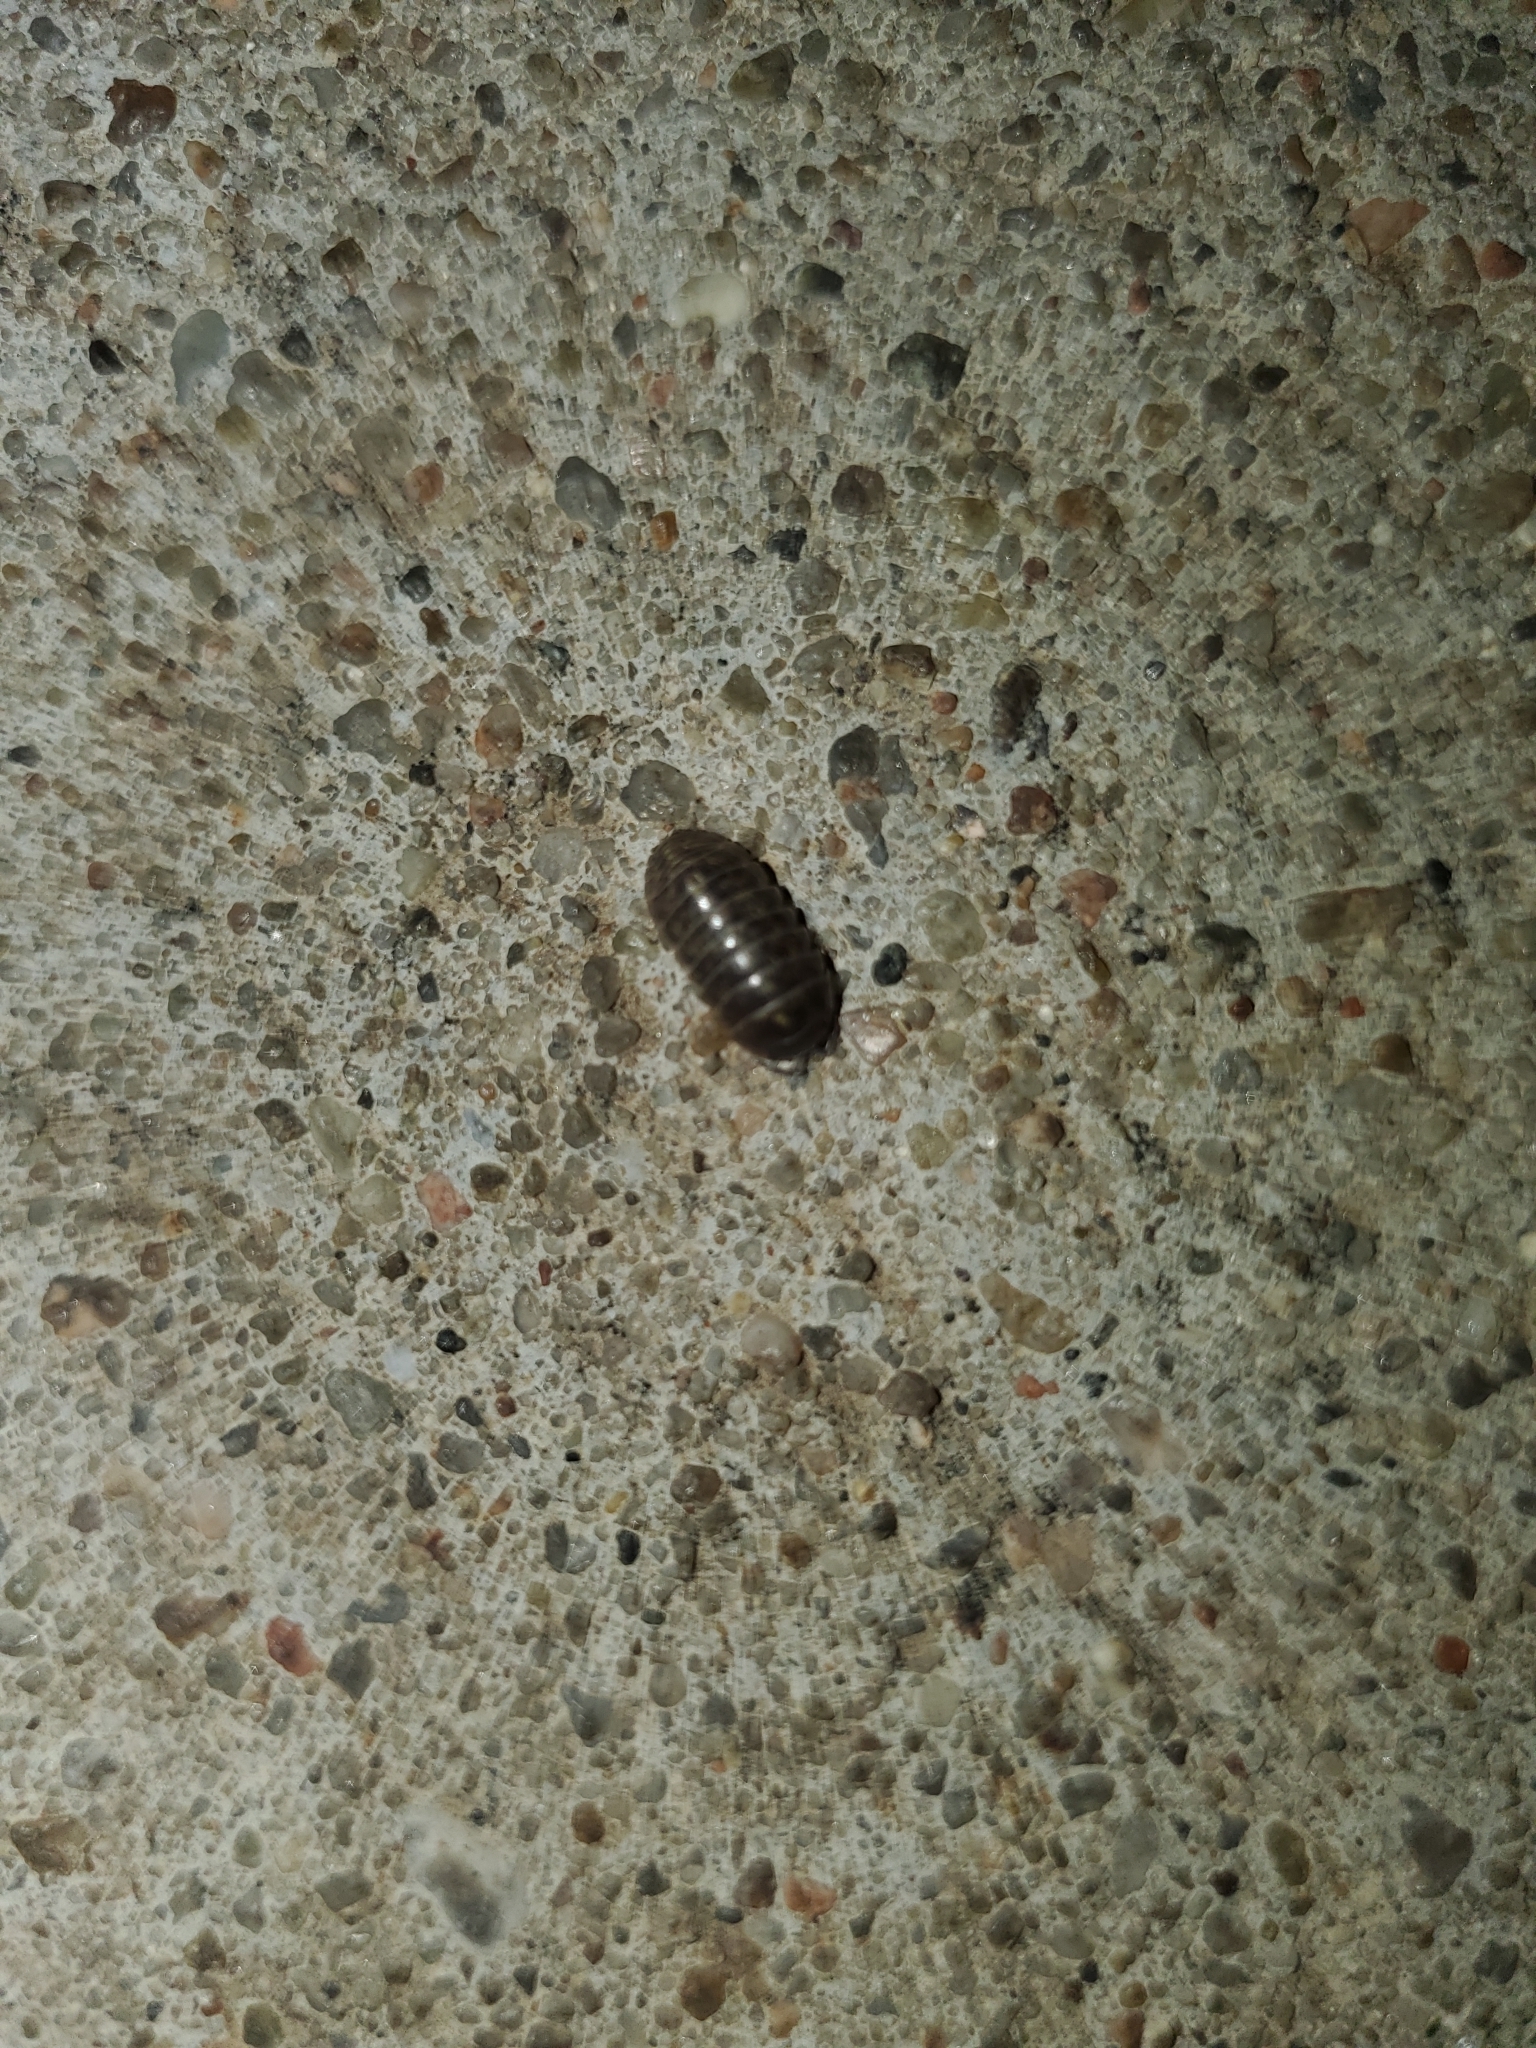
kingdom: Animalia
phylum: Arthropoda
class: Malacostraca
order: Isopoda
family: Armadillidiidae
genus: Armadillidium
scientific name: Armadillidium vulgare
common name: Common pill woodlouse
